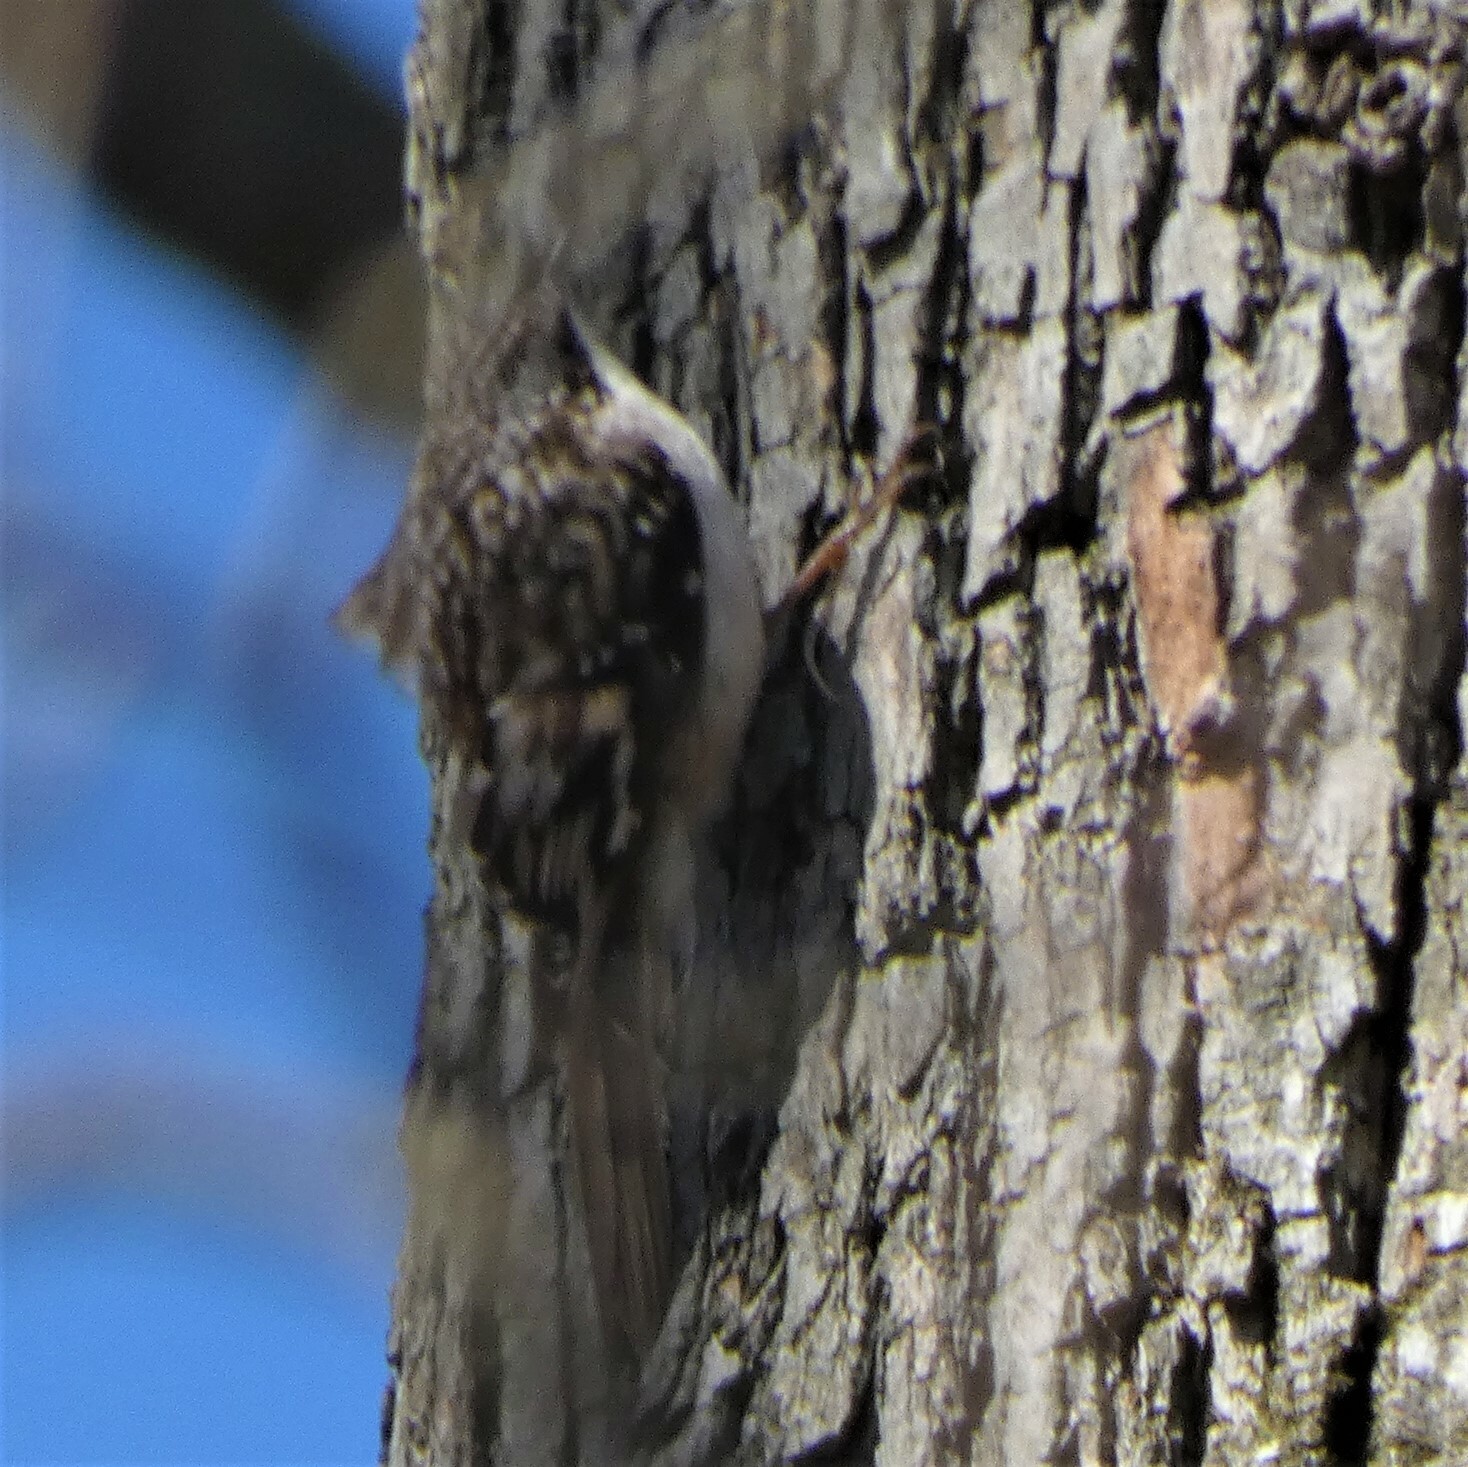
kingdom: Animalia
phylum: Chordata
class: Aves
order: Passeriformes
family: Certhiidae
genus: Certhia
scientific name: Certhia americana
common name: Brown creeper
